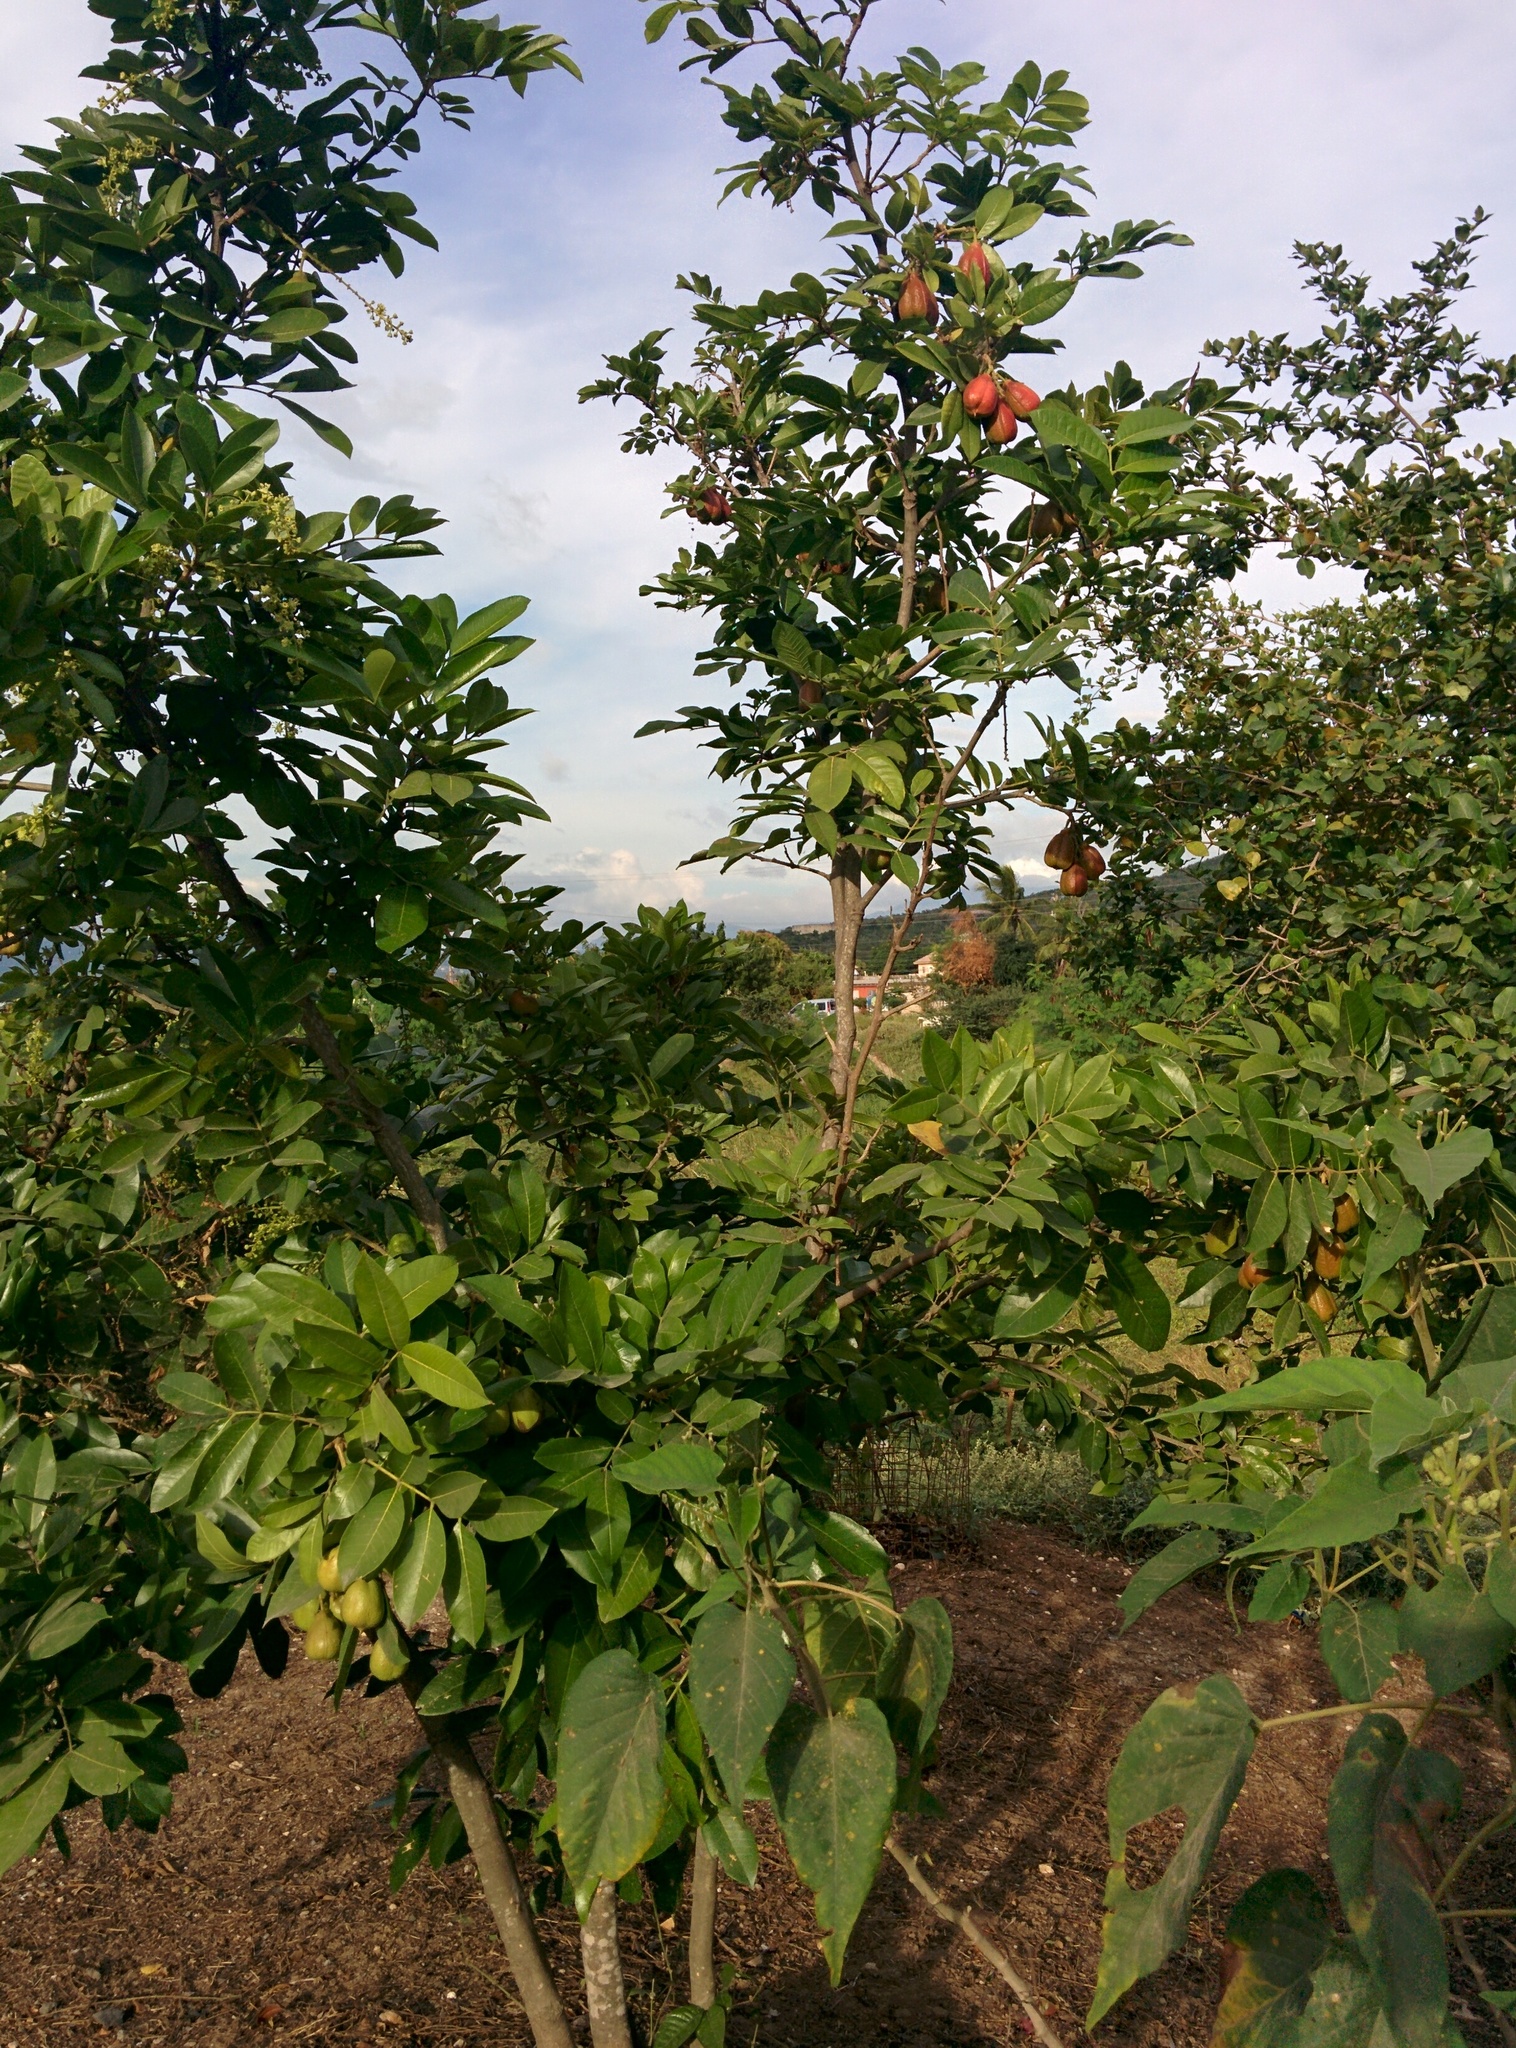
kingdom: Plantae
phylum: Tracheophyta
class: Magnoliopsida
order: Sapindales
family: Sapindaceae
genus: Blighia
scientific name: Blighia sapida
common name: Akee
